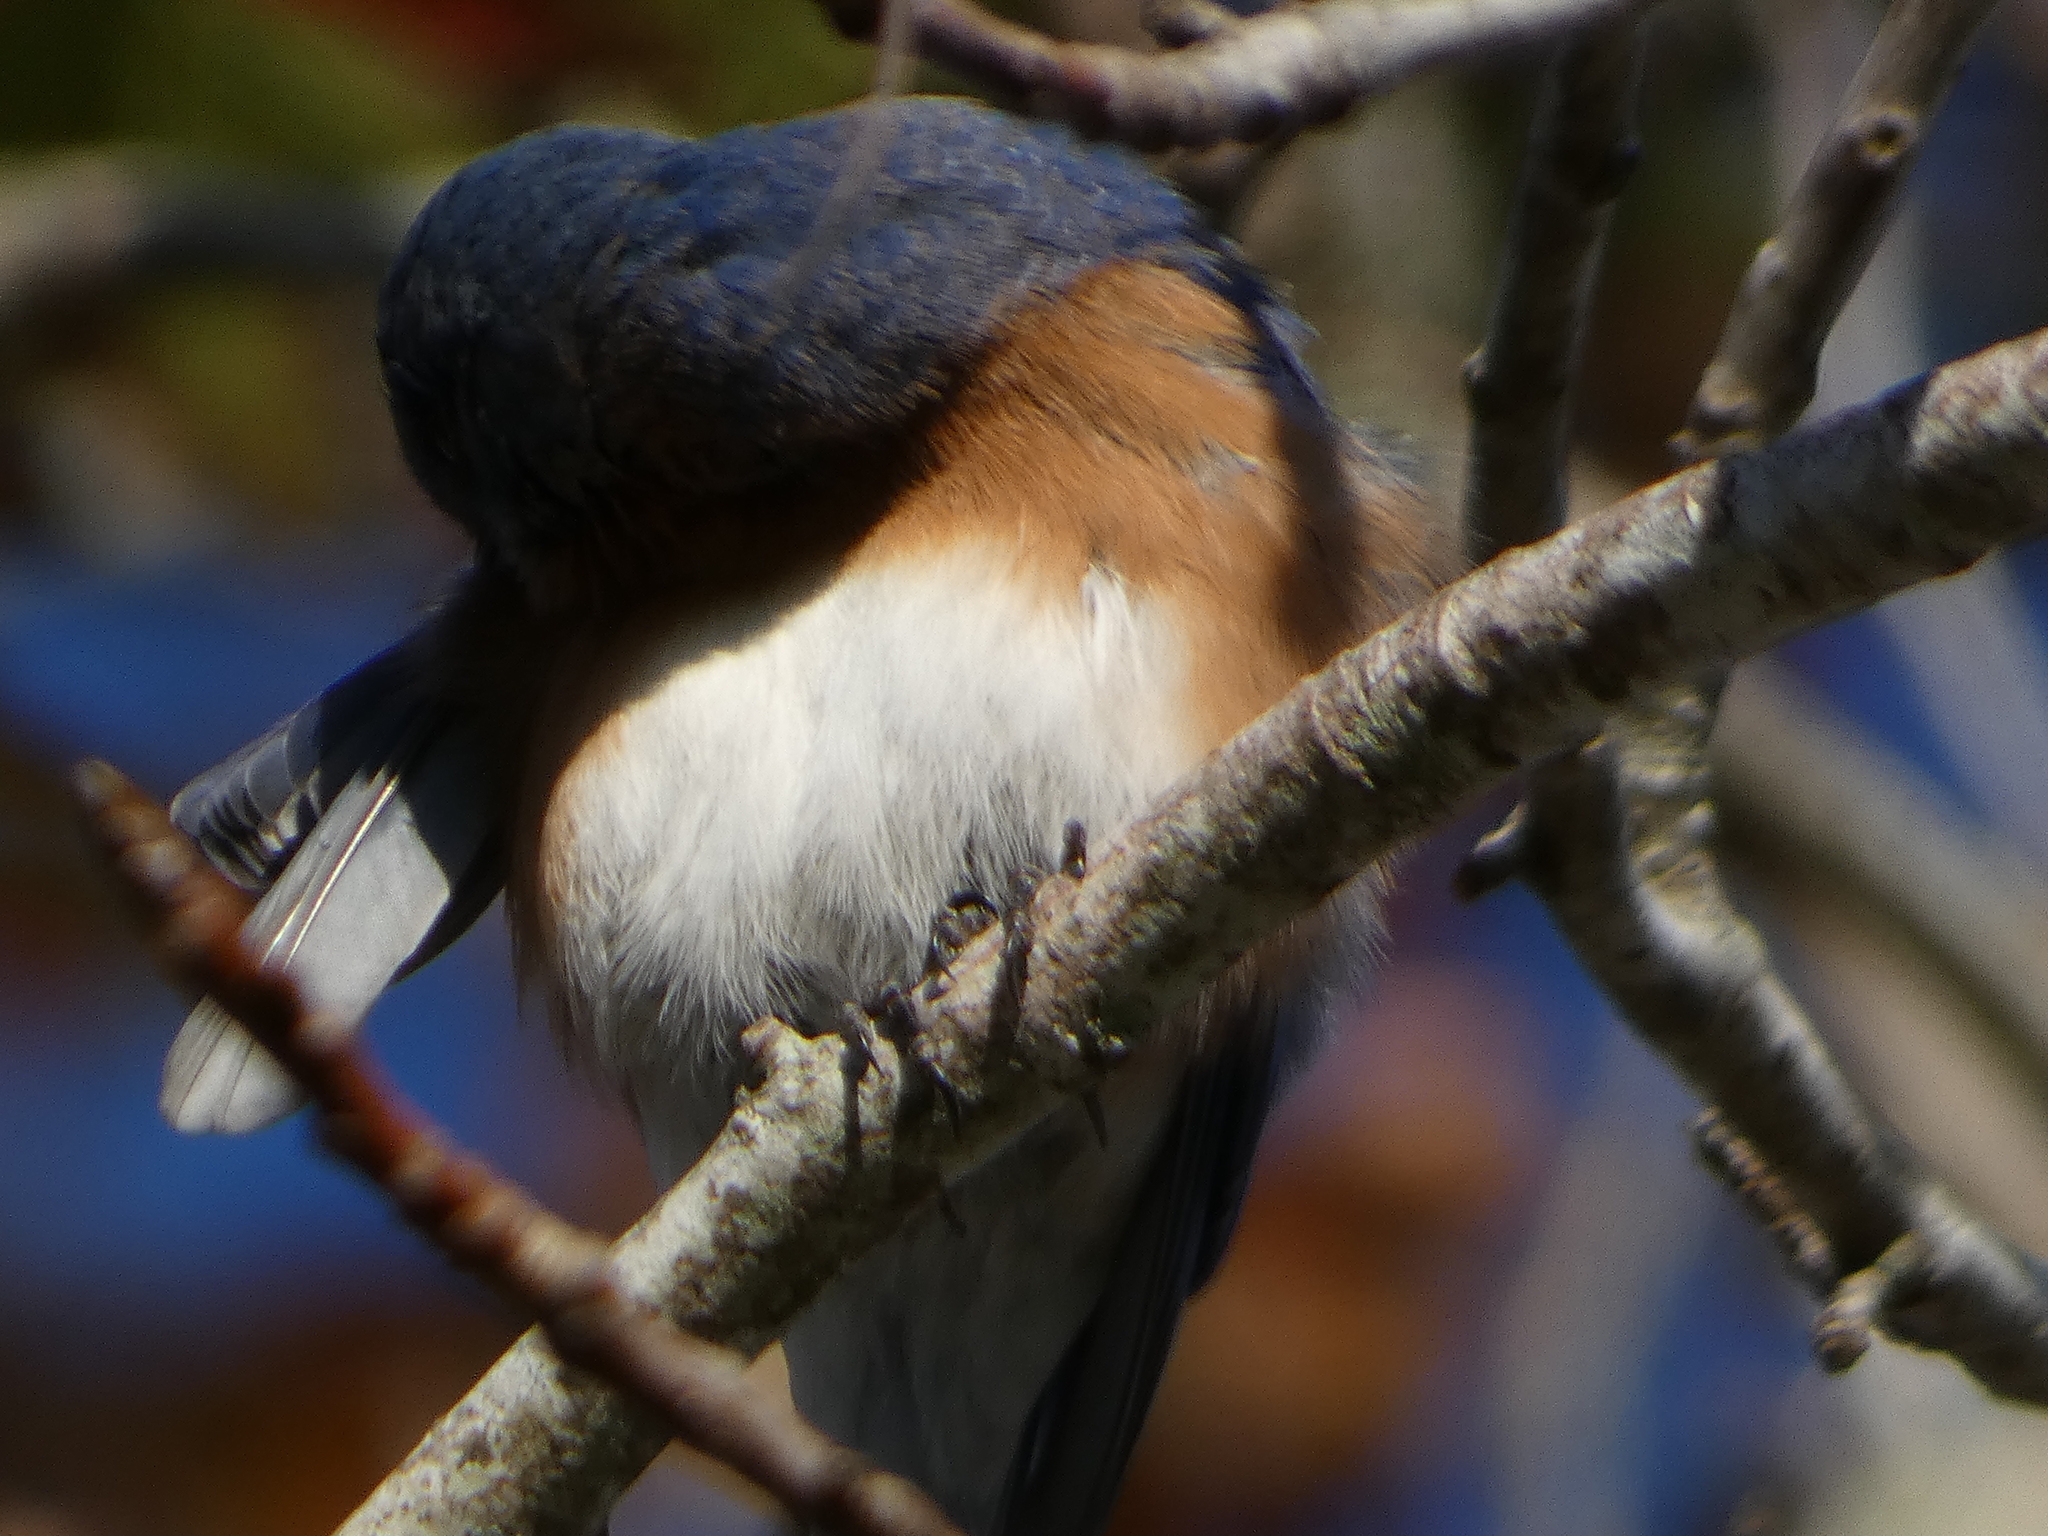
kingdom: Animalia
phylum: Chordata
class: Aves
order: Passeriformes
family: Turdidae
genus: Sialia
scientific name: Sialia sialis
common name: Eastern bluebird
